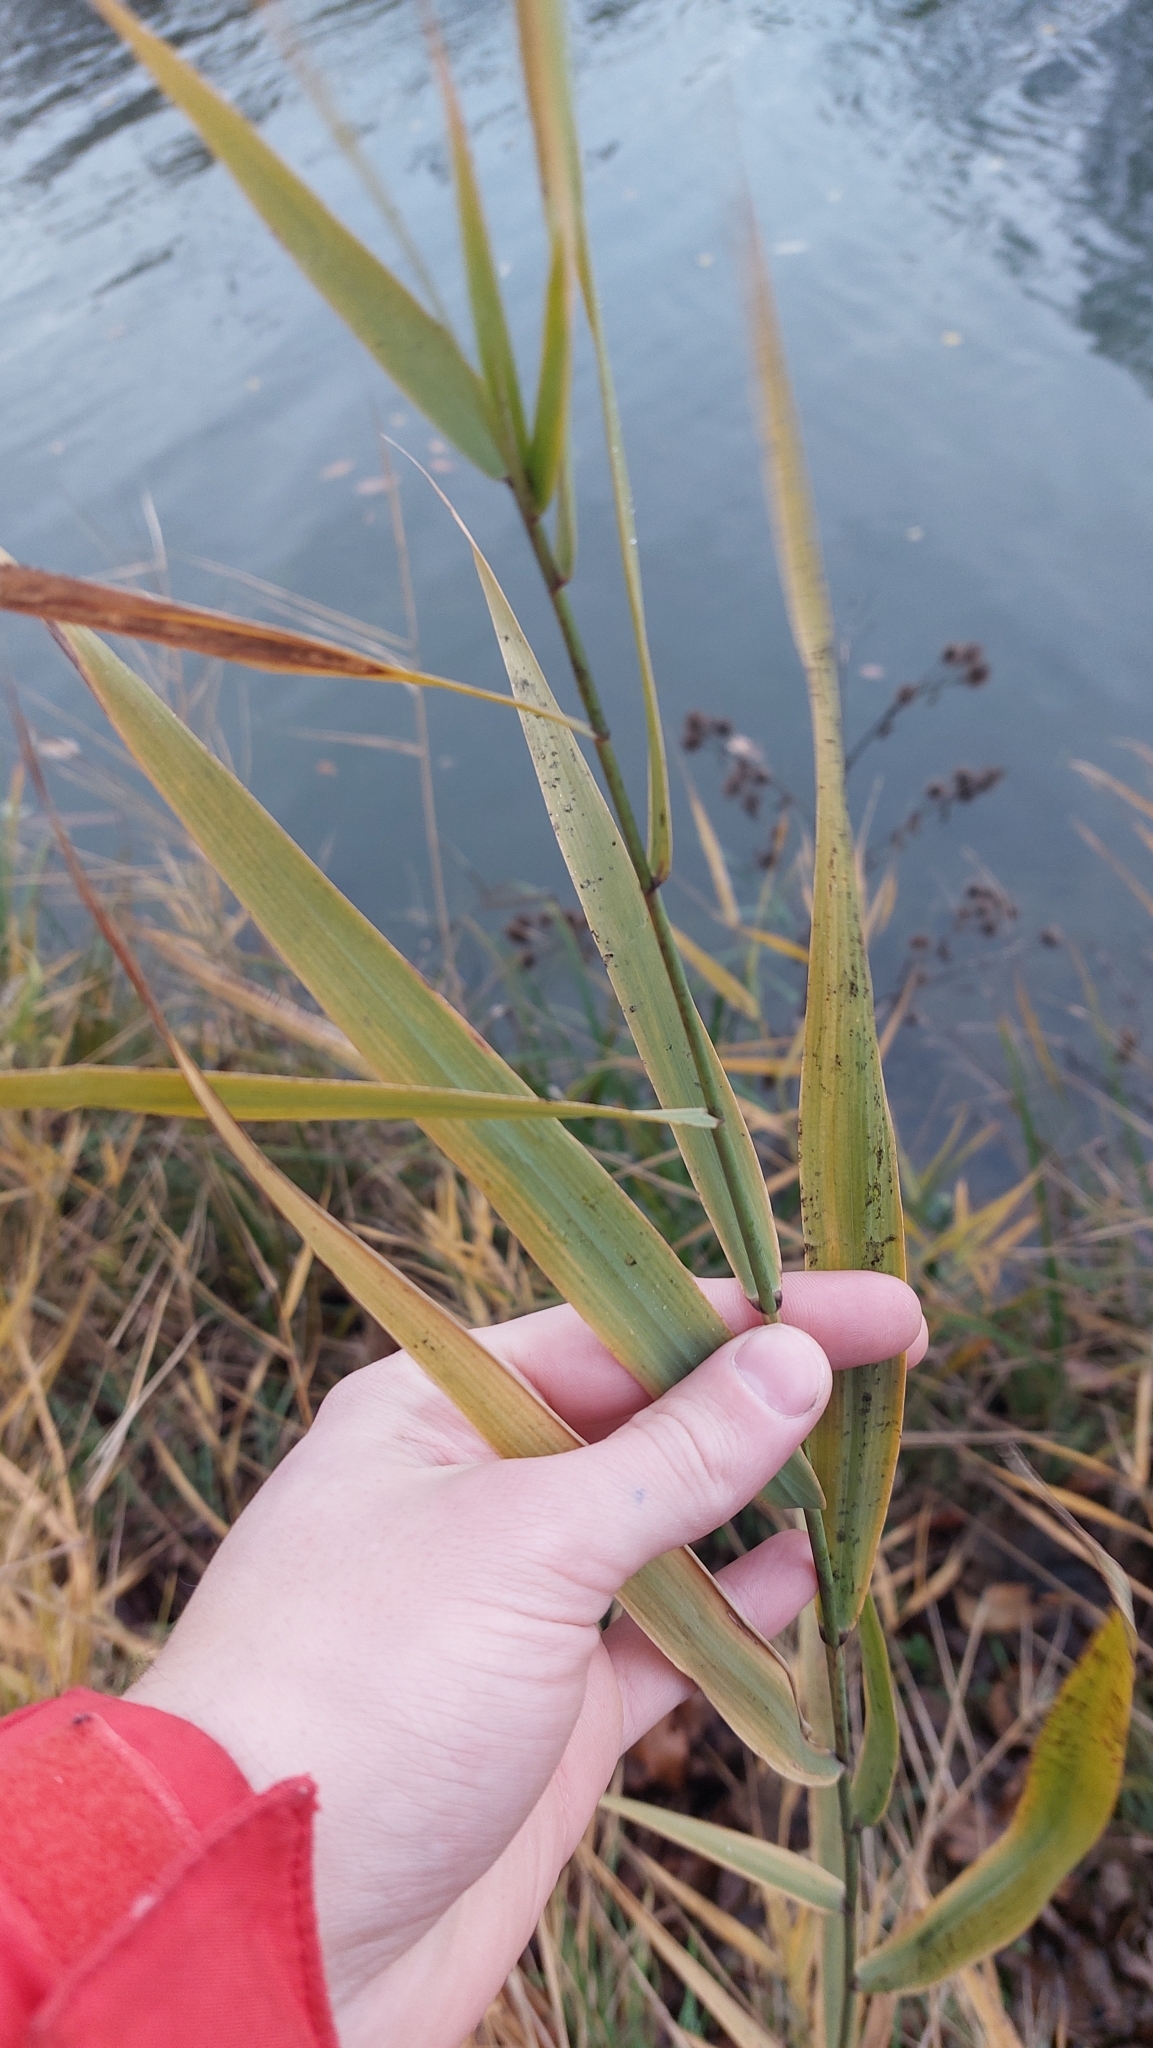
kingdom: Plantae
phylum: Tracheophyta
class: Liliopsida
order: Poales
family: Poaceae
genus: Phragmites
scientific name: Phragmites australis
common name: Common reed
